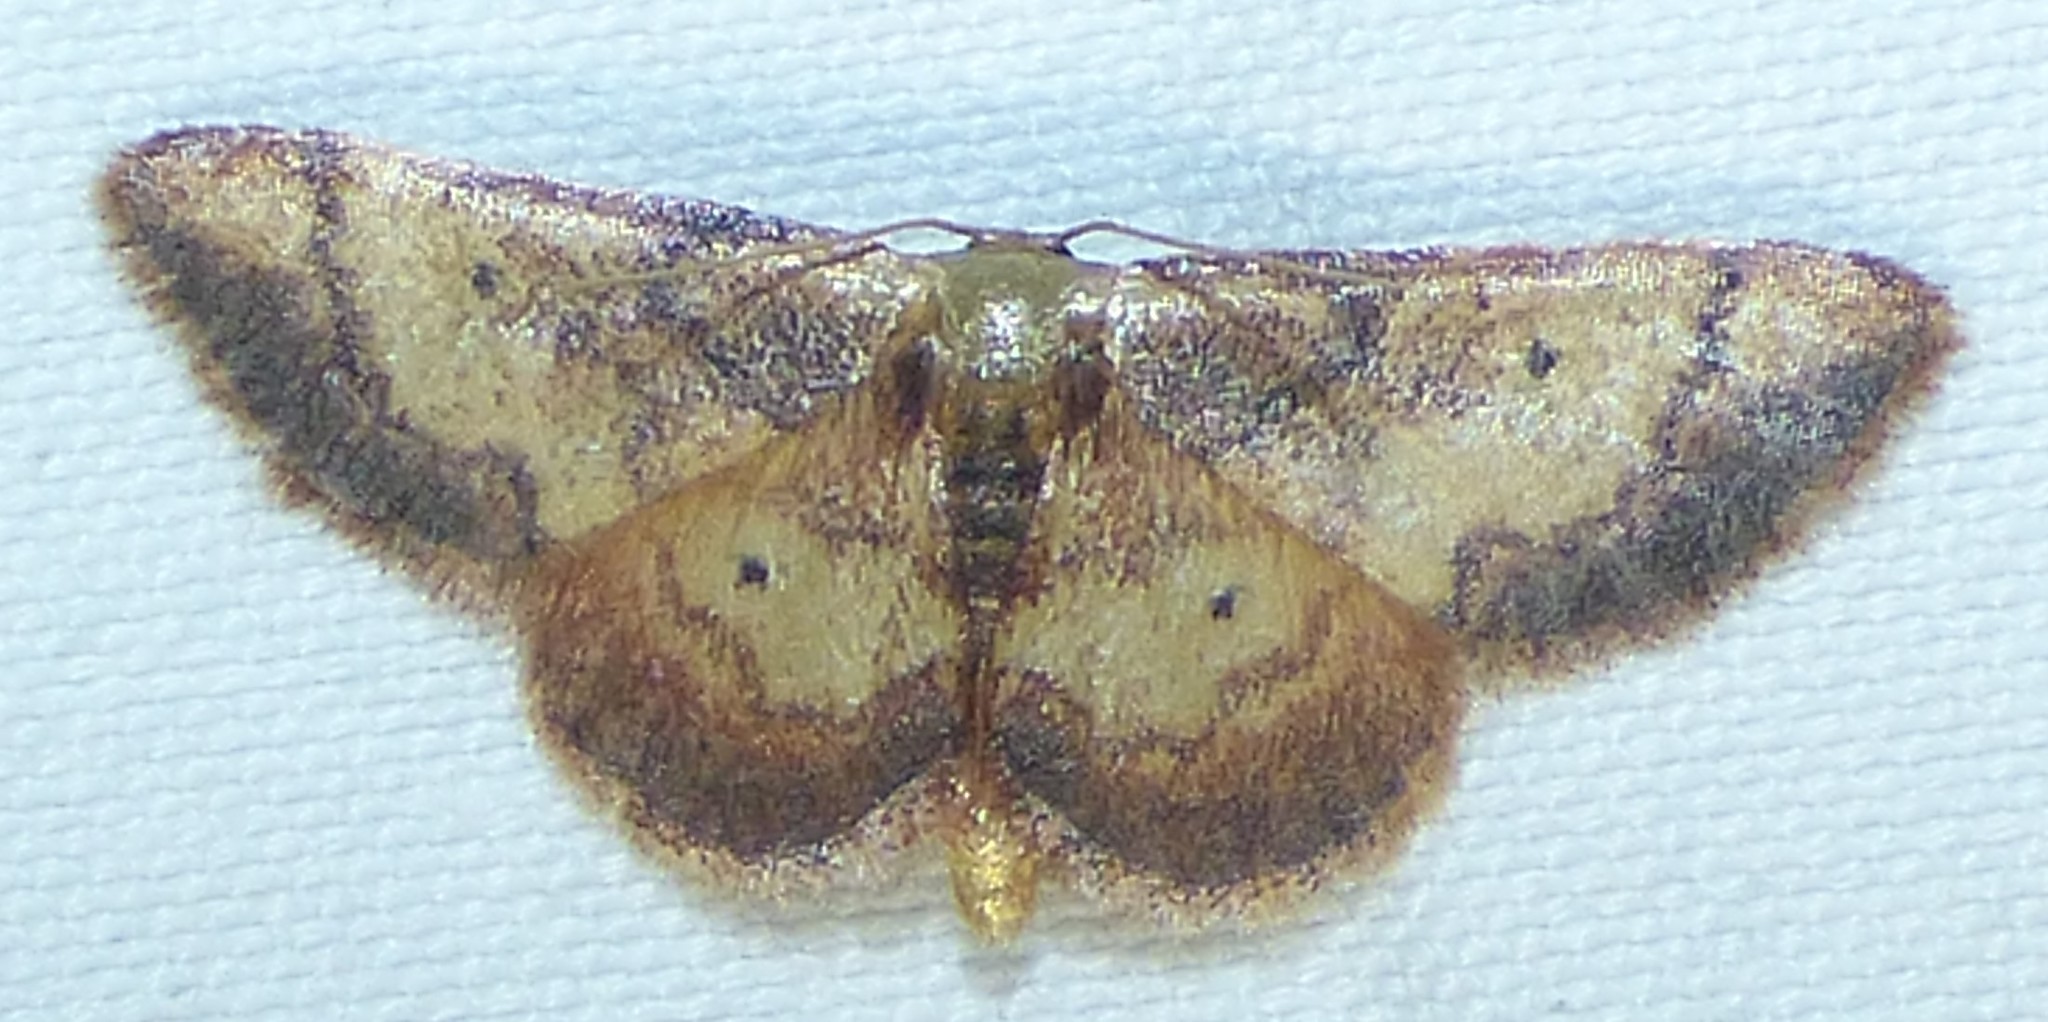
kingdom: Animalia
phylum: Arthropoda
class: Insecta
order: Lepidoptera
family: Geometridae
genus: Idaea
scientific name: Idaea demissaria
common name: Red-bordered wave
